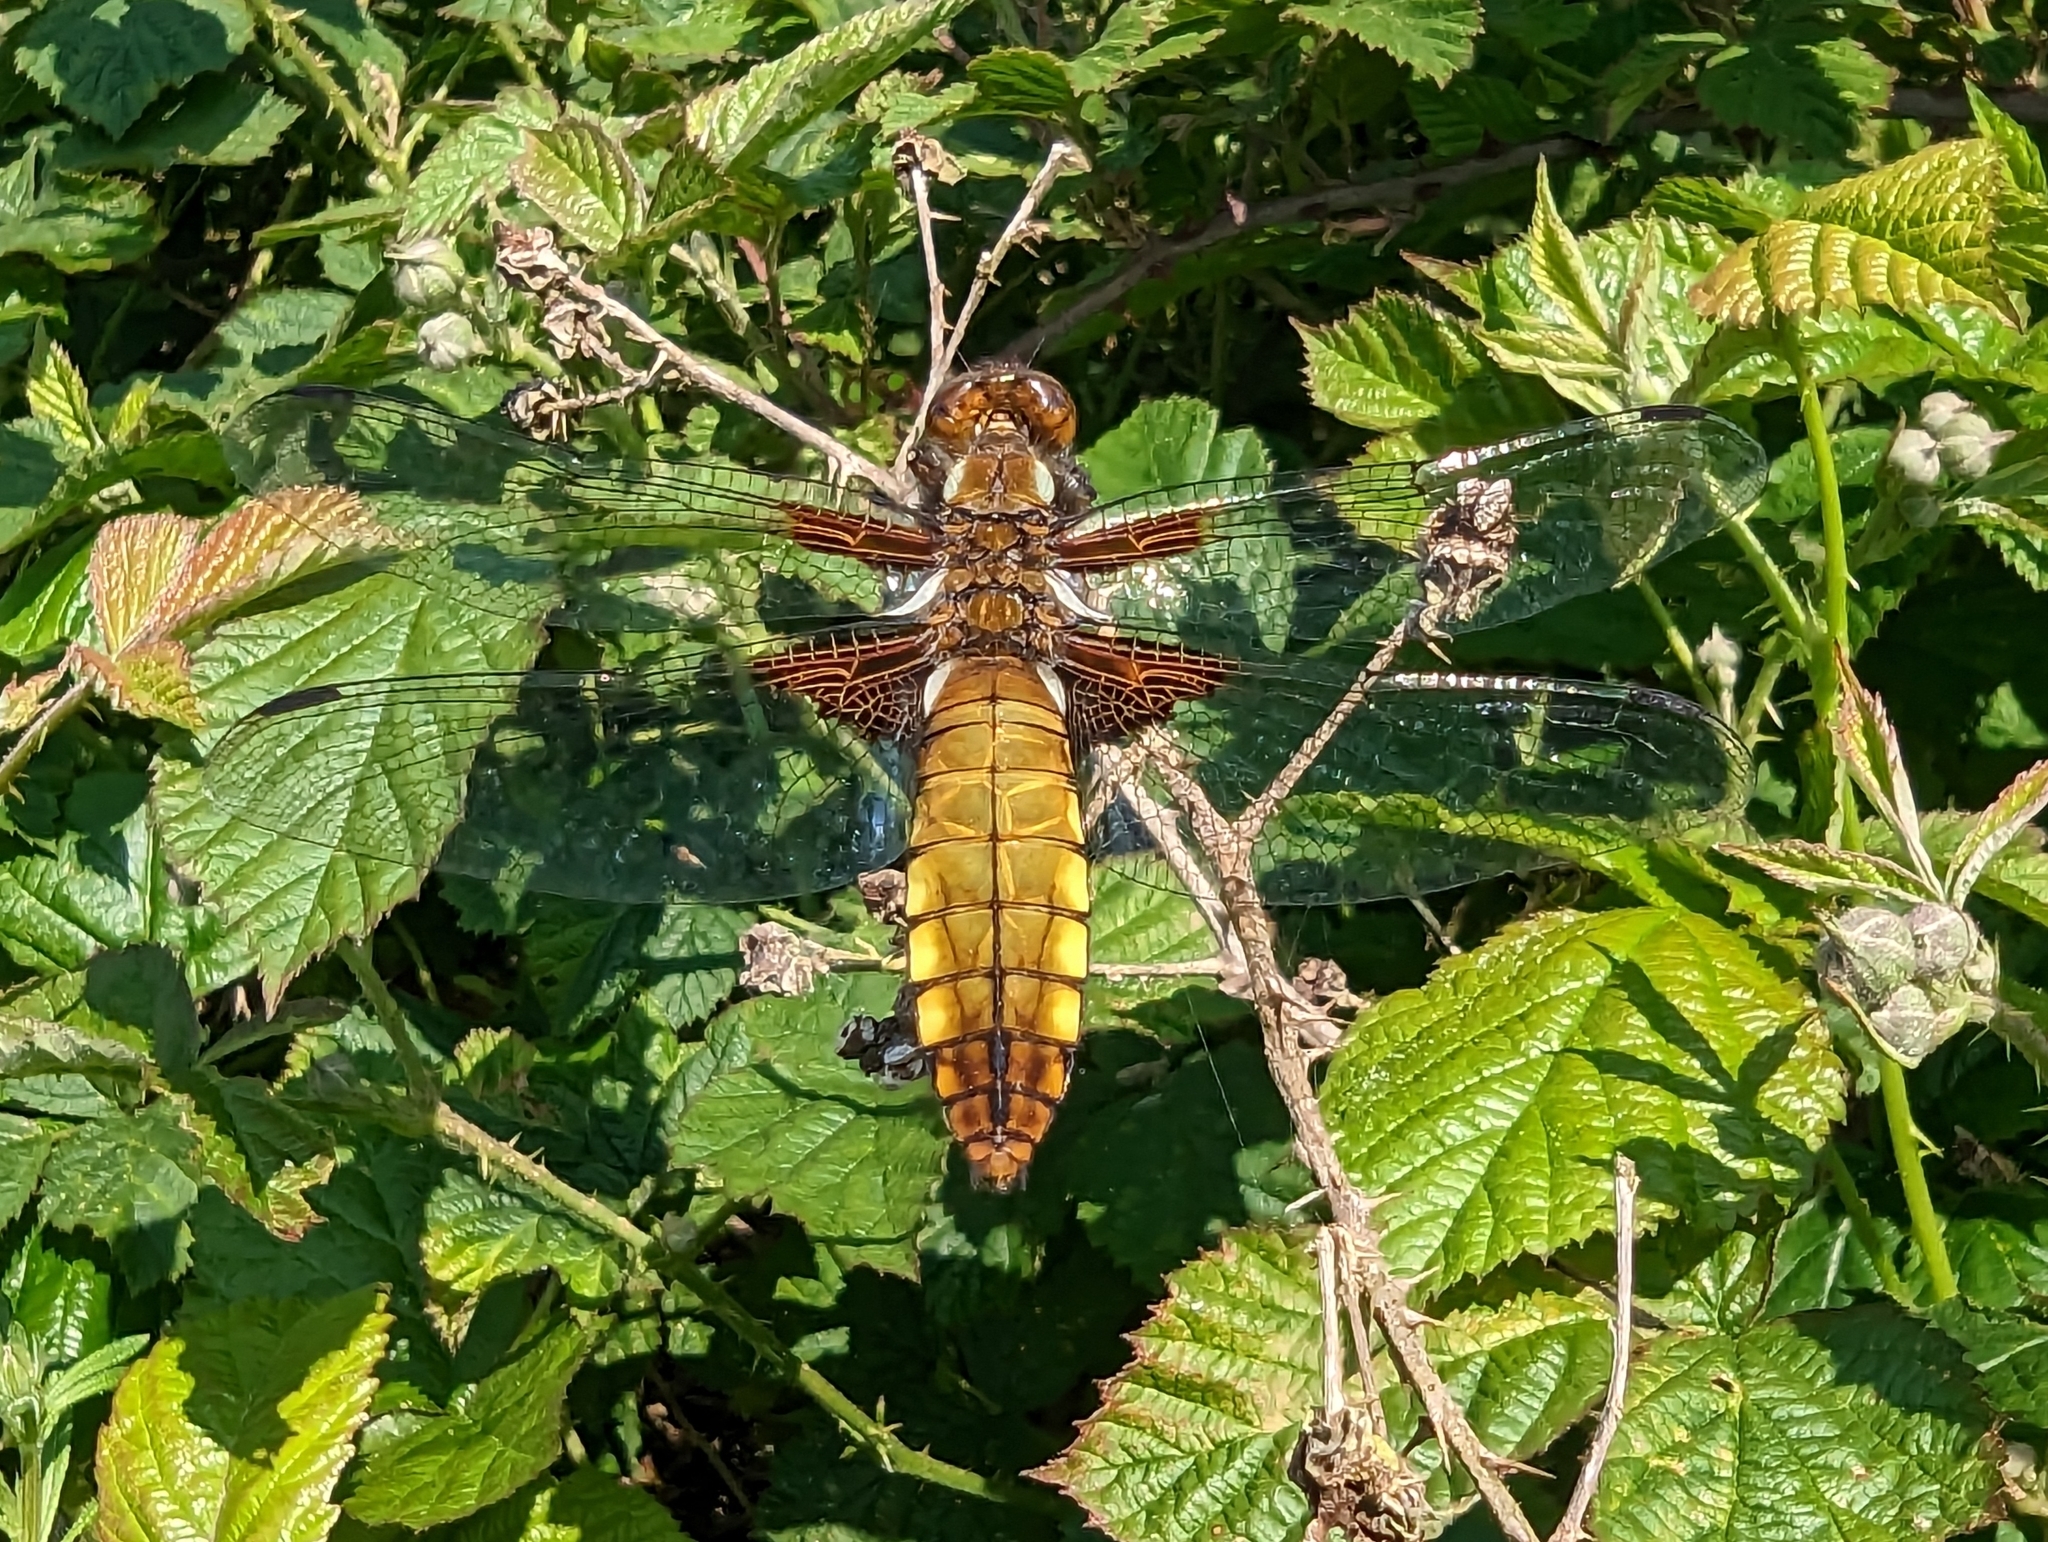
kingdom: Animalia
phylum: Arthropoda
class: Insecta
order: Odonata
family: Libellulidae
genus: Libellula
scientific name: Libellula depressa
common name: Broad-bodied chaser
